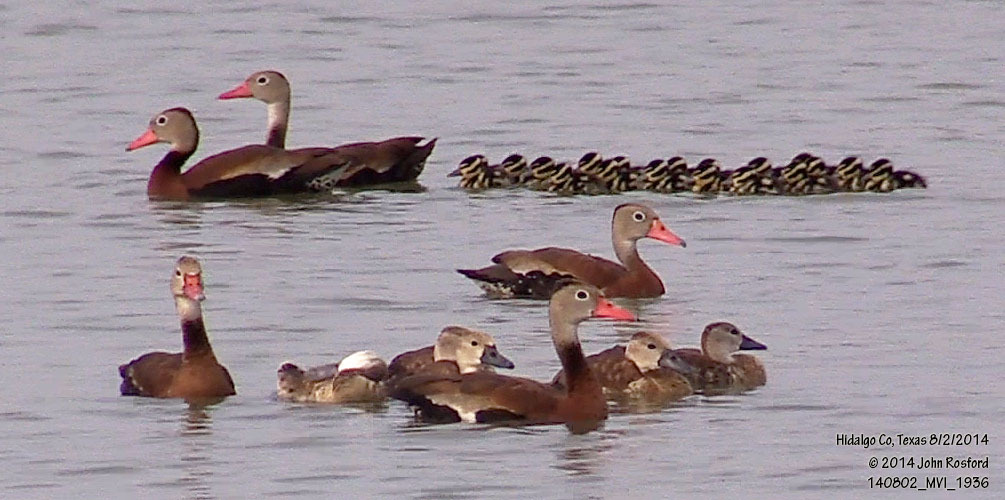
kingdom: Animalia
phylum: Chordata
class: Aves
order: Anseriformes
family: Anatidae
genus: Dendrocygna
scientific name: Dendrocygna autumnalis
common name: Black-bellied whistling duck
